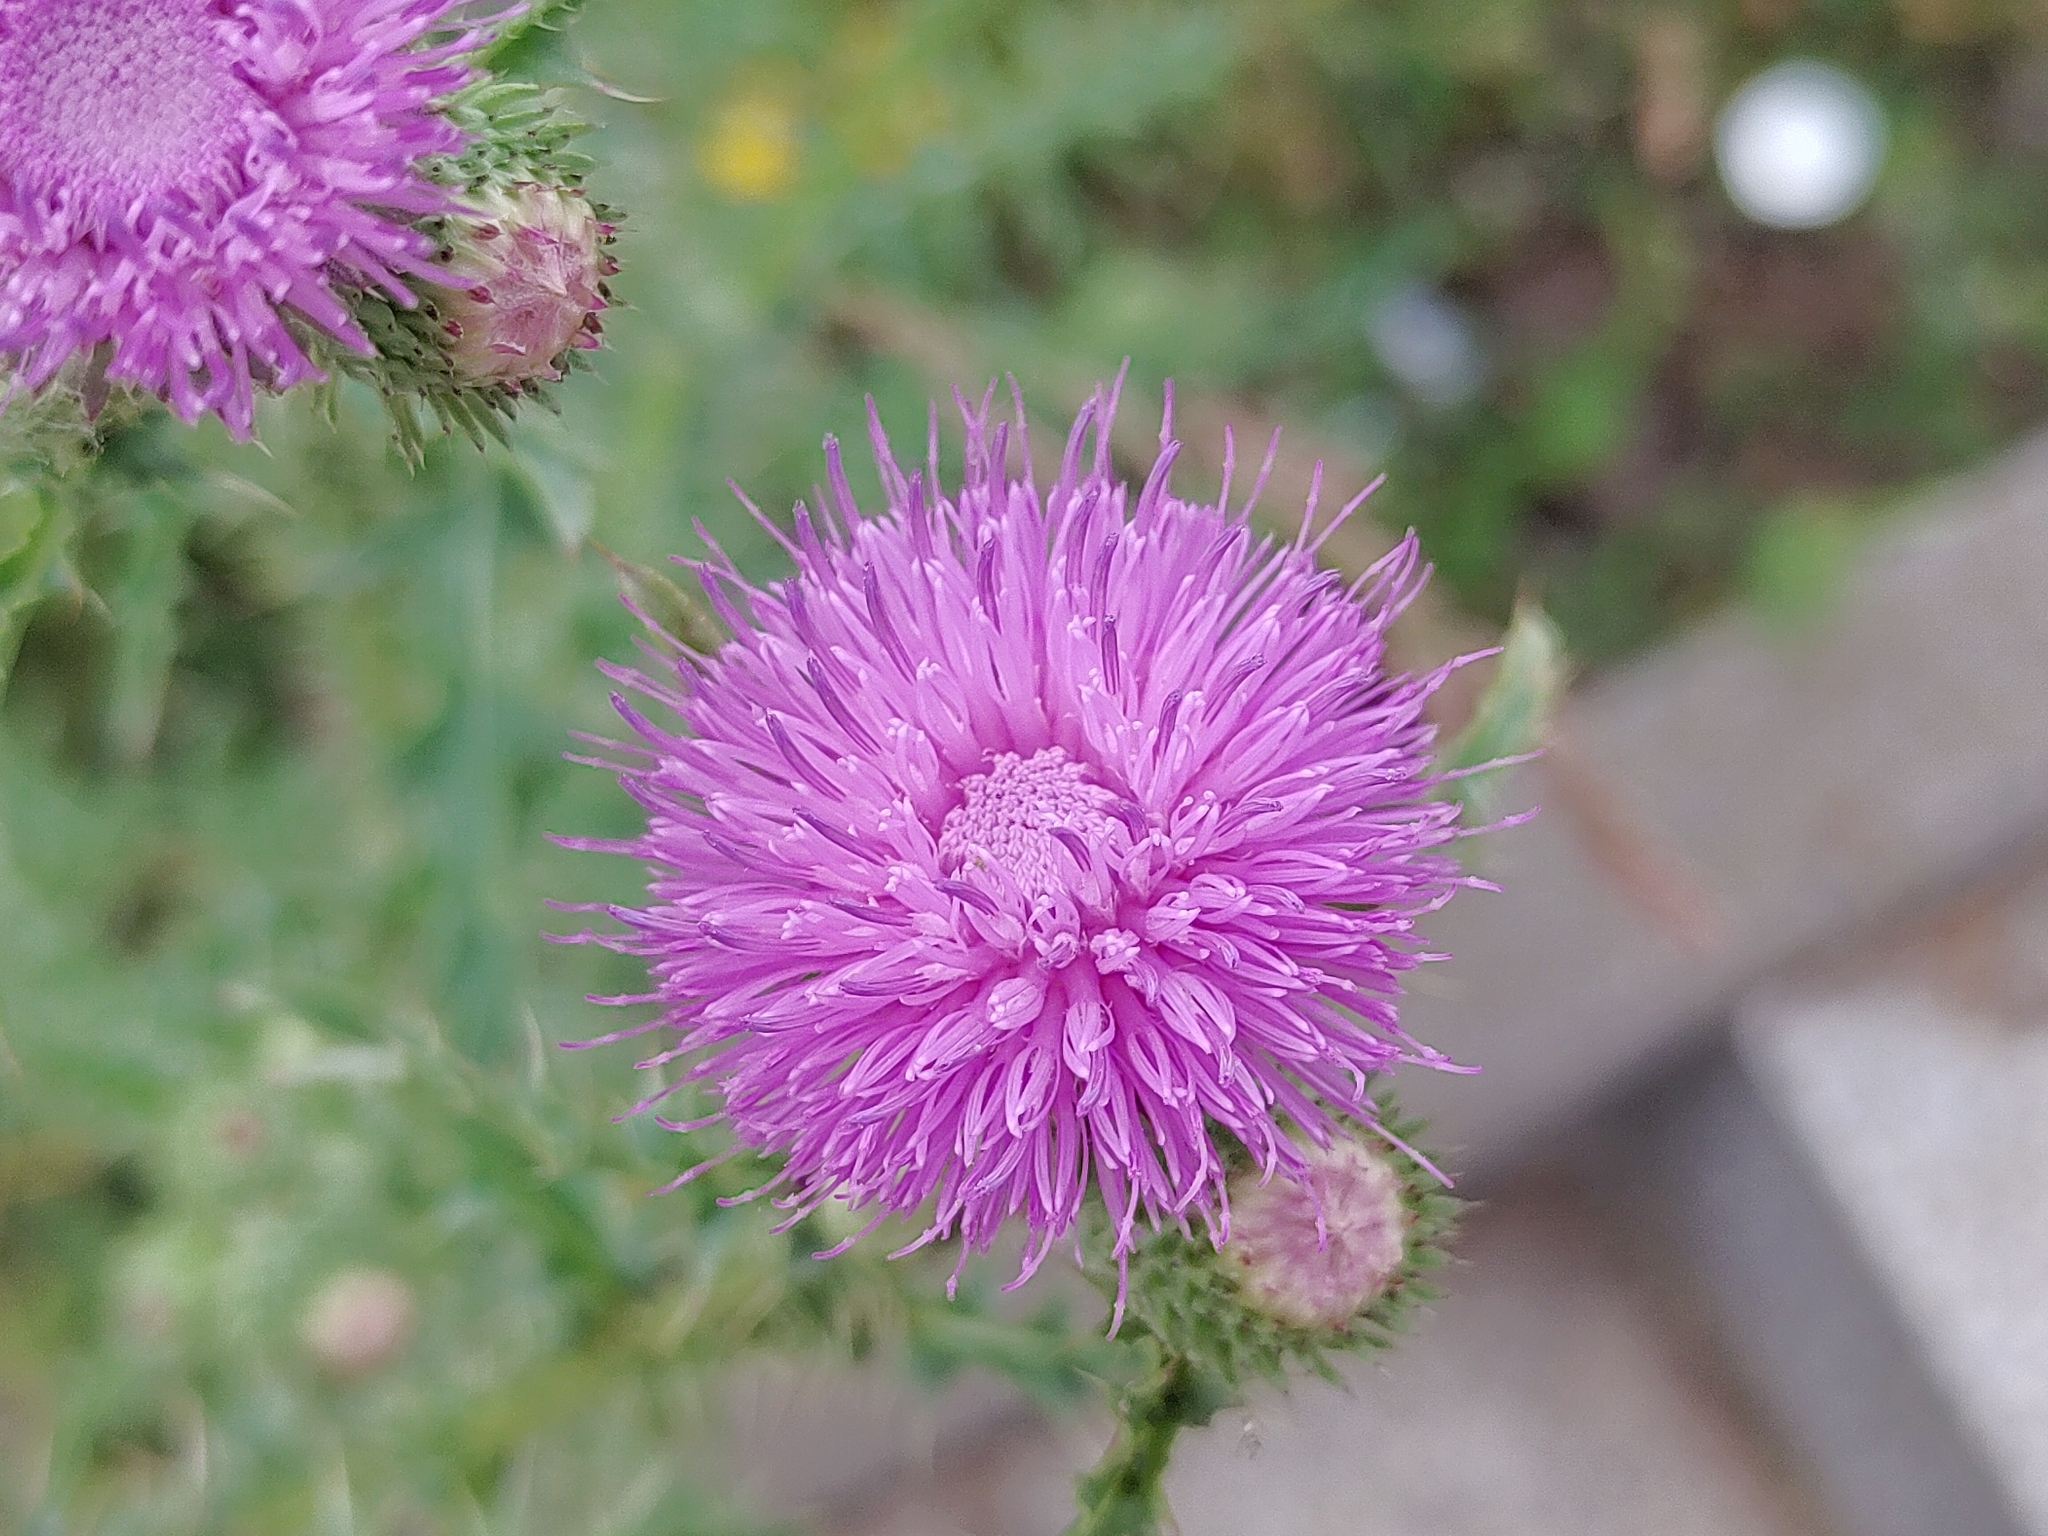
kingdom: Plantae
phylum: Tracheophyta
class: Magnoliopsida
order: Asterales
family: Asteraceae
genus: Carduus
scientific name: Carduus acanthoides
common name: Plumeless thistle
